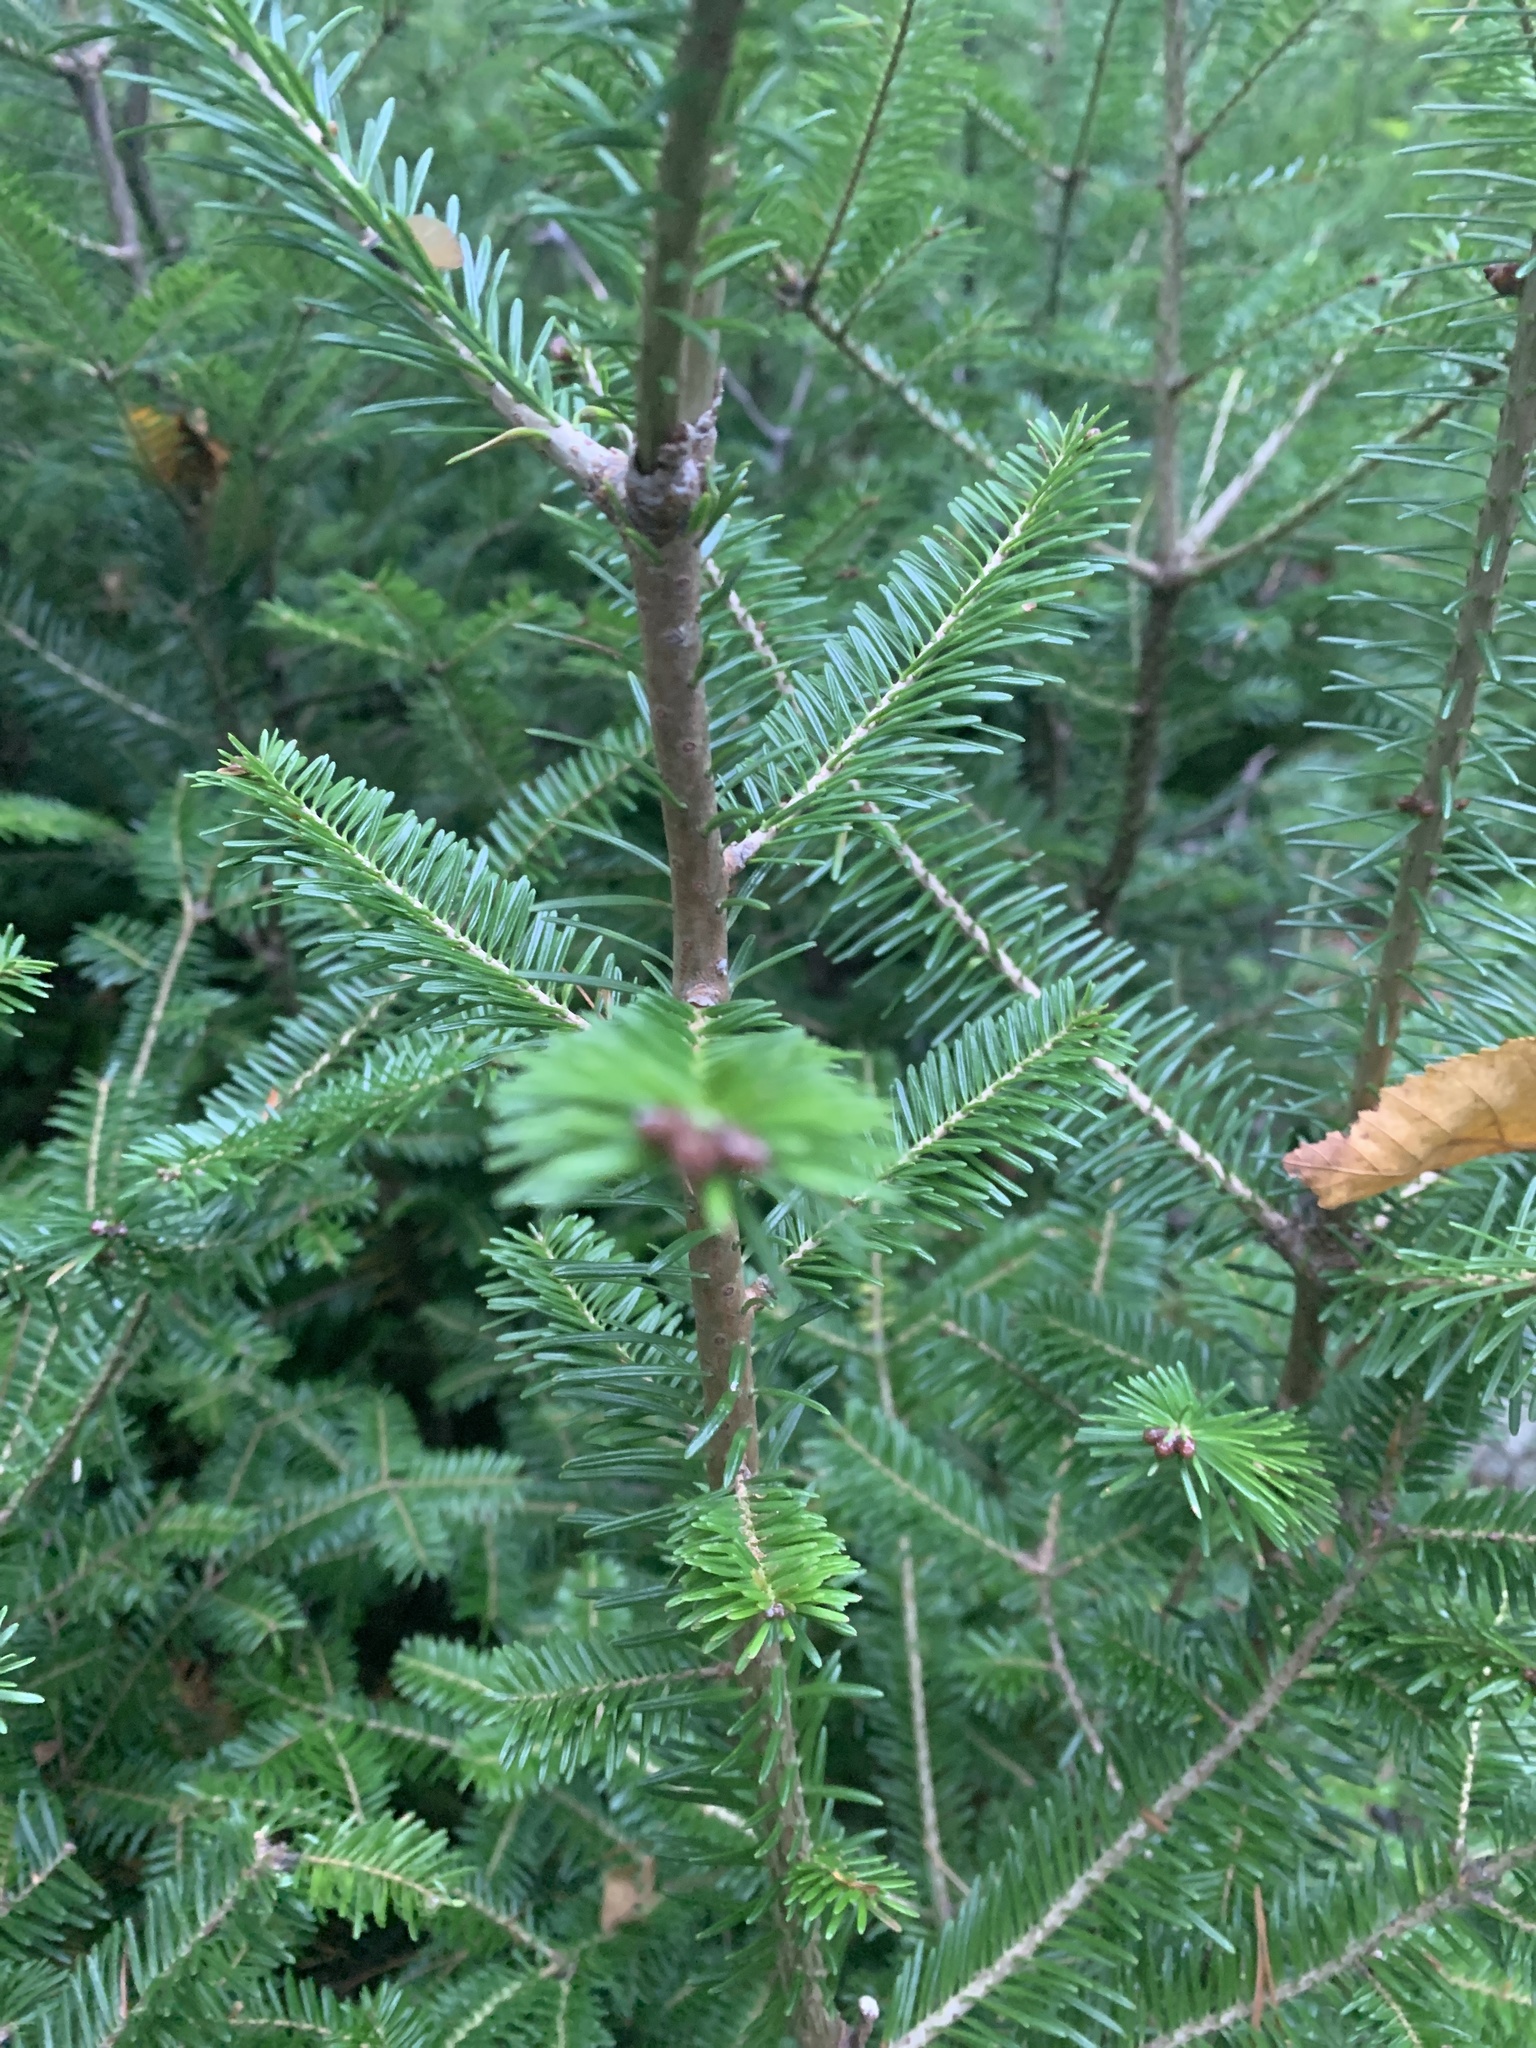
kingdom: Plantae
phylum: Tracheophyta
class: Pinopsida
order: Pinales
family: Pinaceae
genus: Abies
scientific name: Abies balsamea
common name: Balsam fir
